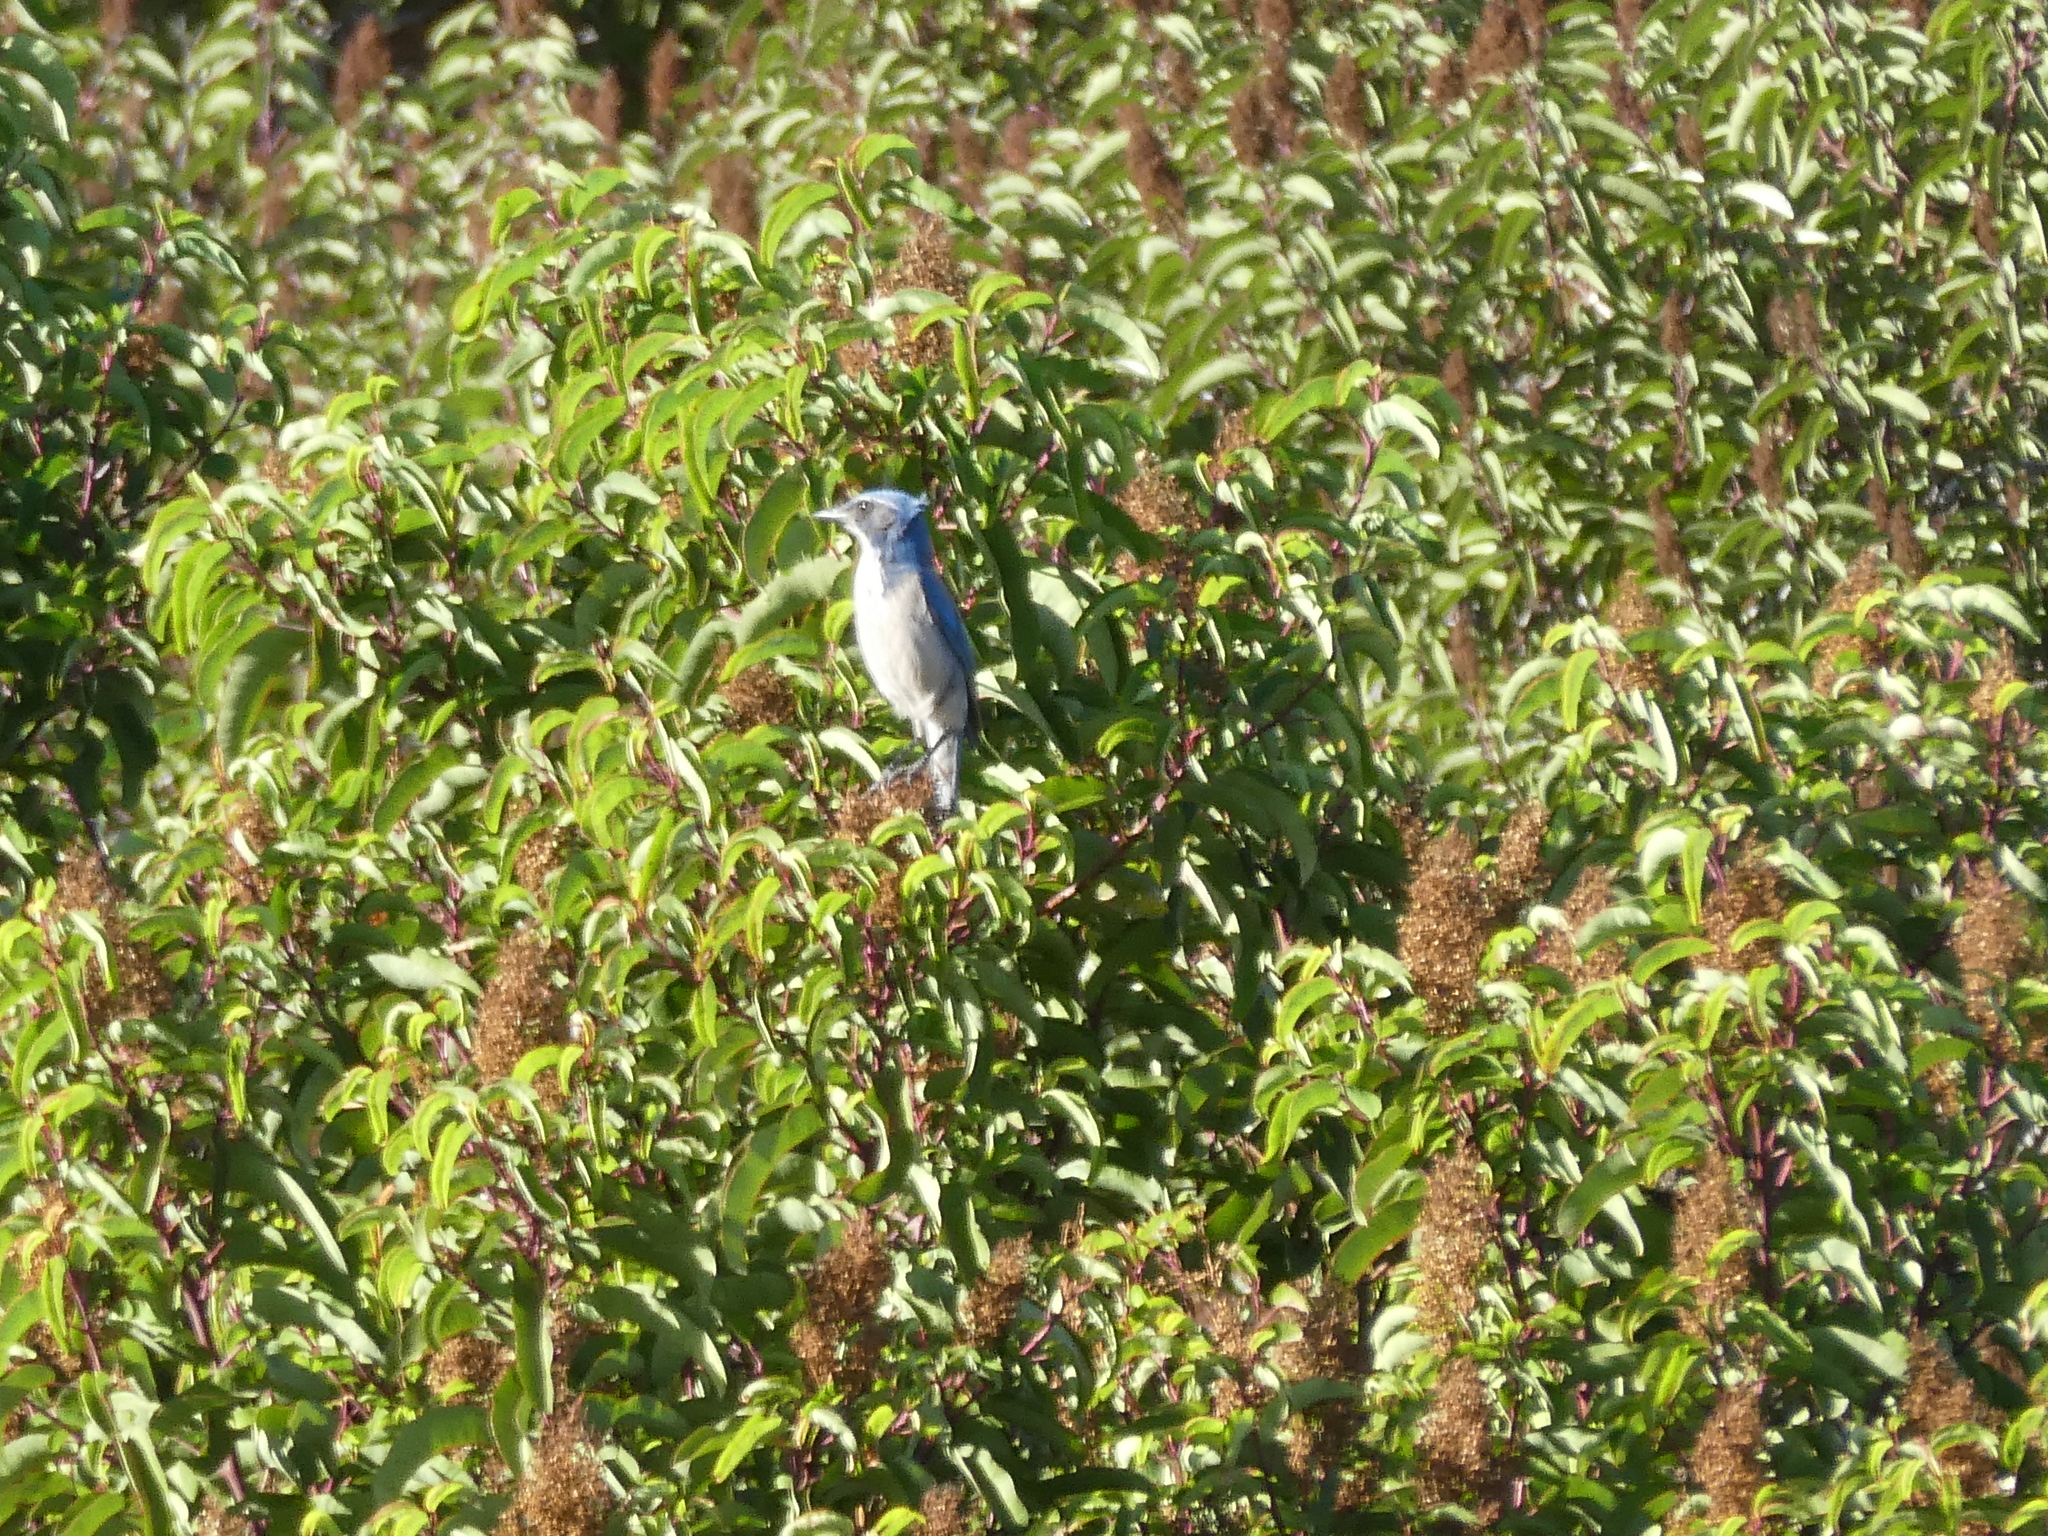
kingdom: Animalia
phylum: Chordata
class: Aves
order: Passeriformes
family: Corvidae
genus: Aphelocoma
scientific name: Aphelocoma californica
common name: California scrub-jay
